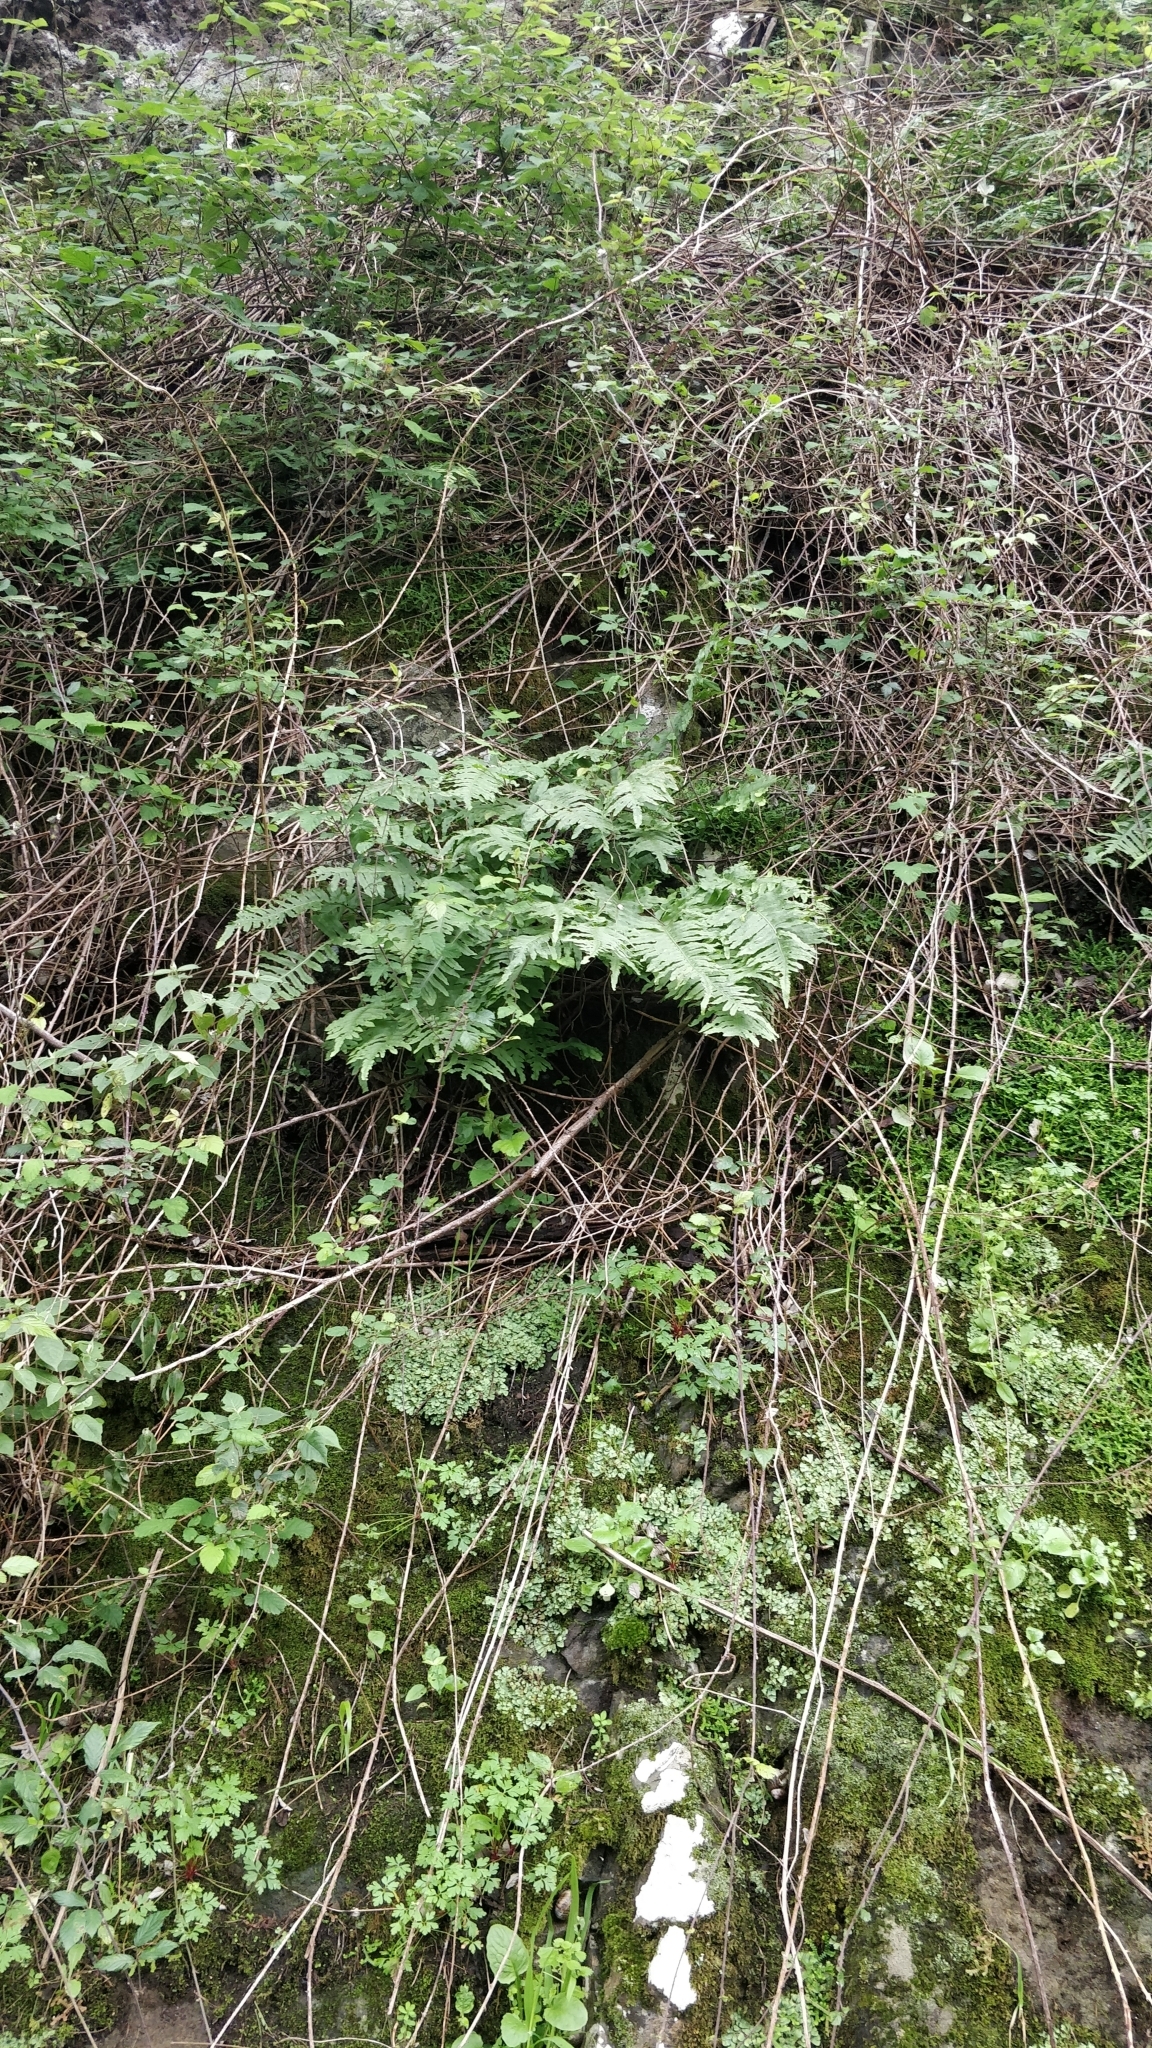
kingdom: Plantae
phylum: Tracheophyta
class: Polypodiopsida
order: Polypodiales
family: Polypodiaceae
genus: Polypodium
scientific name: Polypodium macaronesicum
